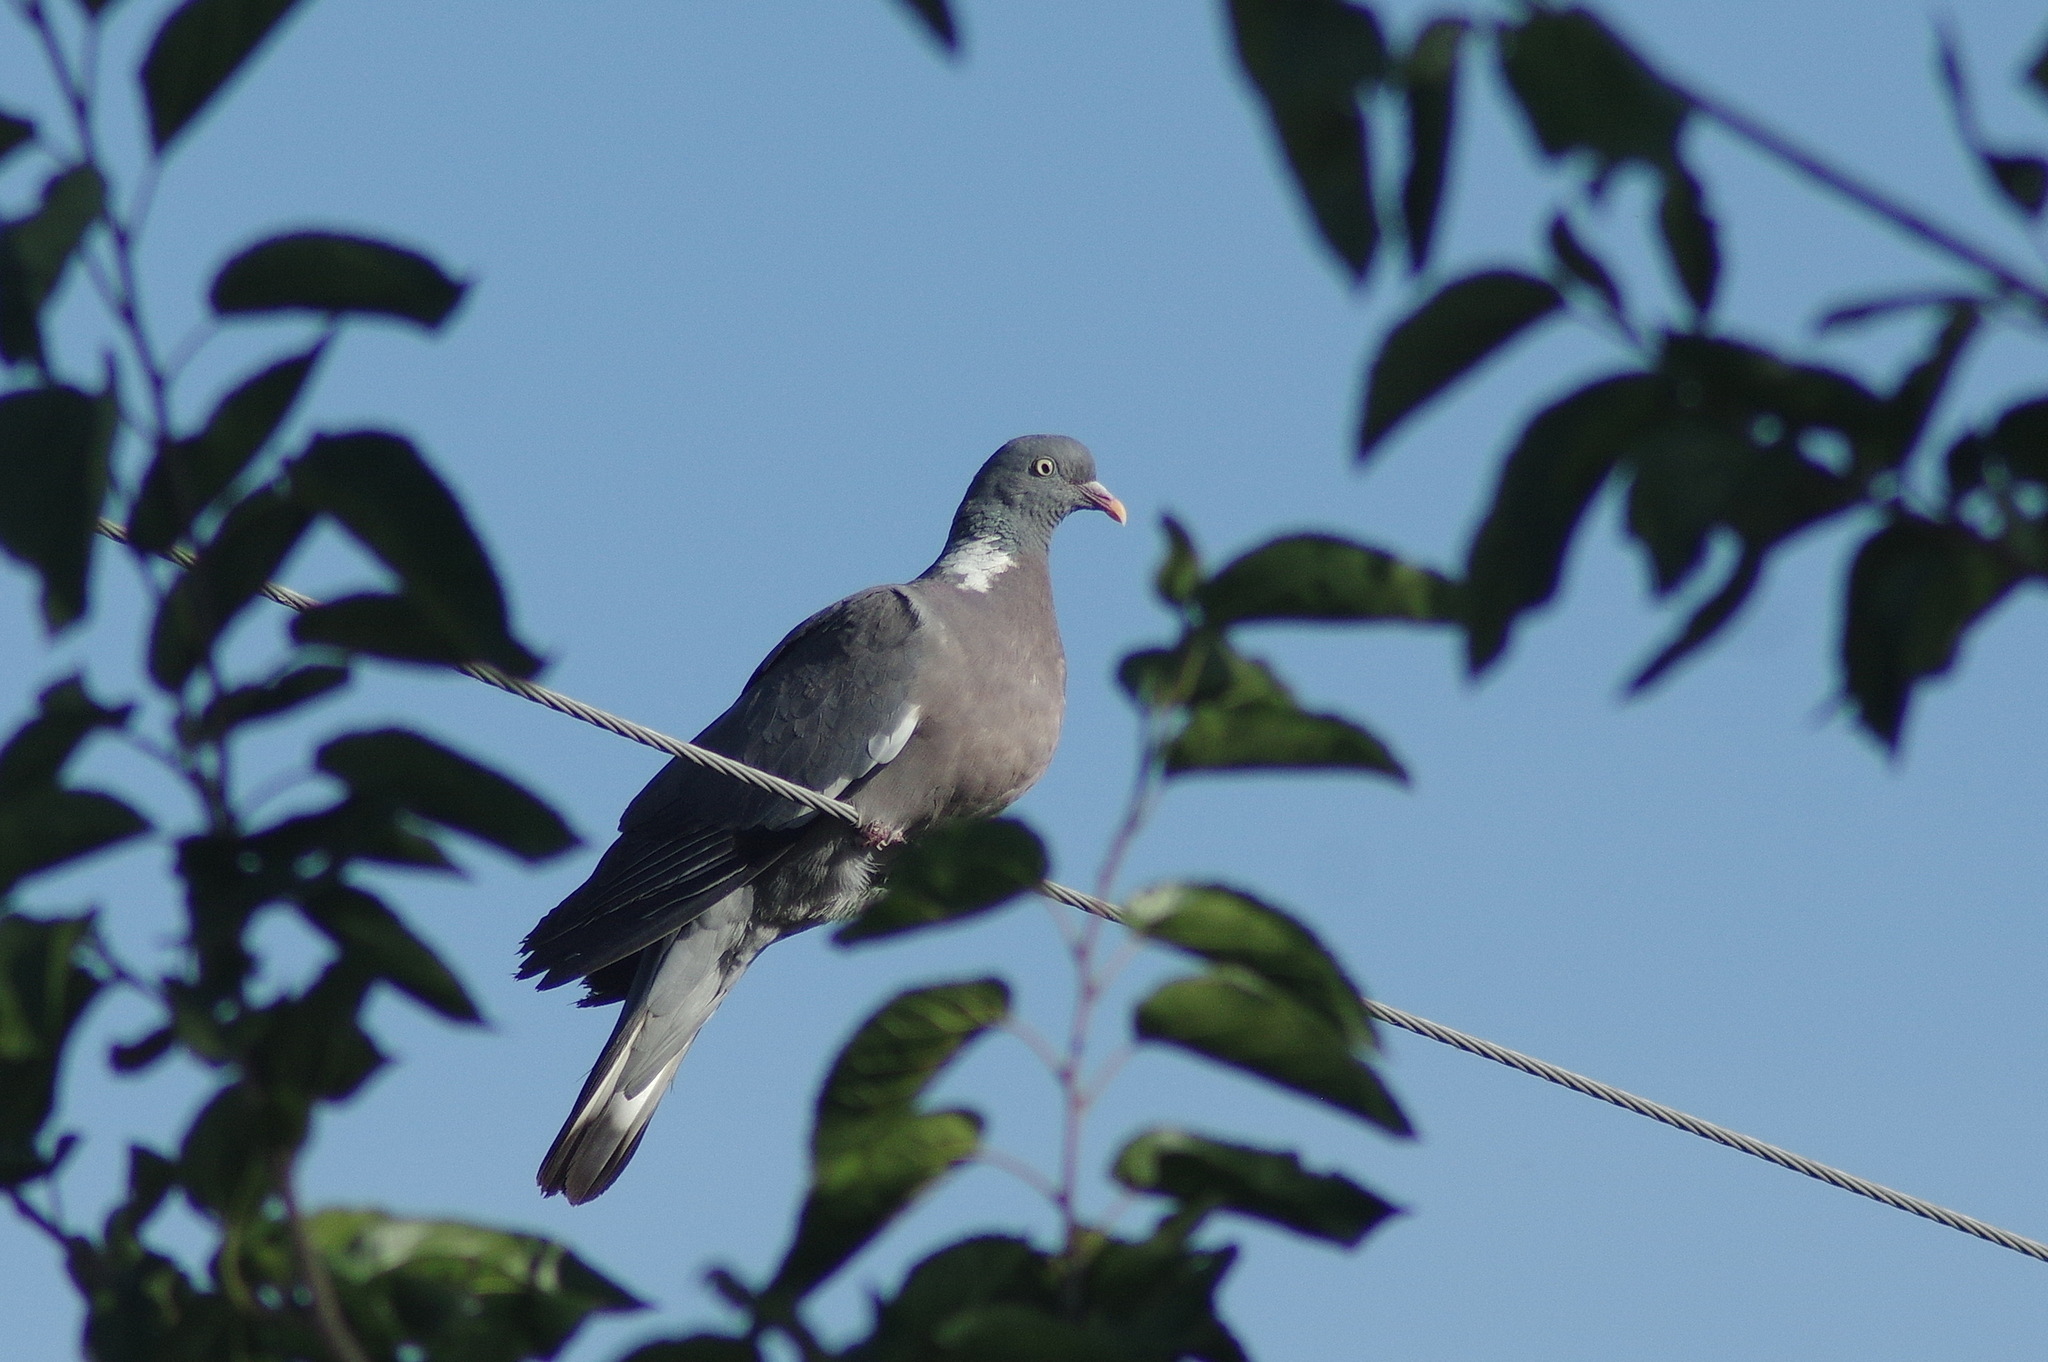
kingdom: Animalia
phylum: Chordata
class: Aves
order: Columbiformes
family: Columbidae
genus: Columba
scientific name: Columba palumbus
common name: Common wood pigeon
